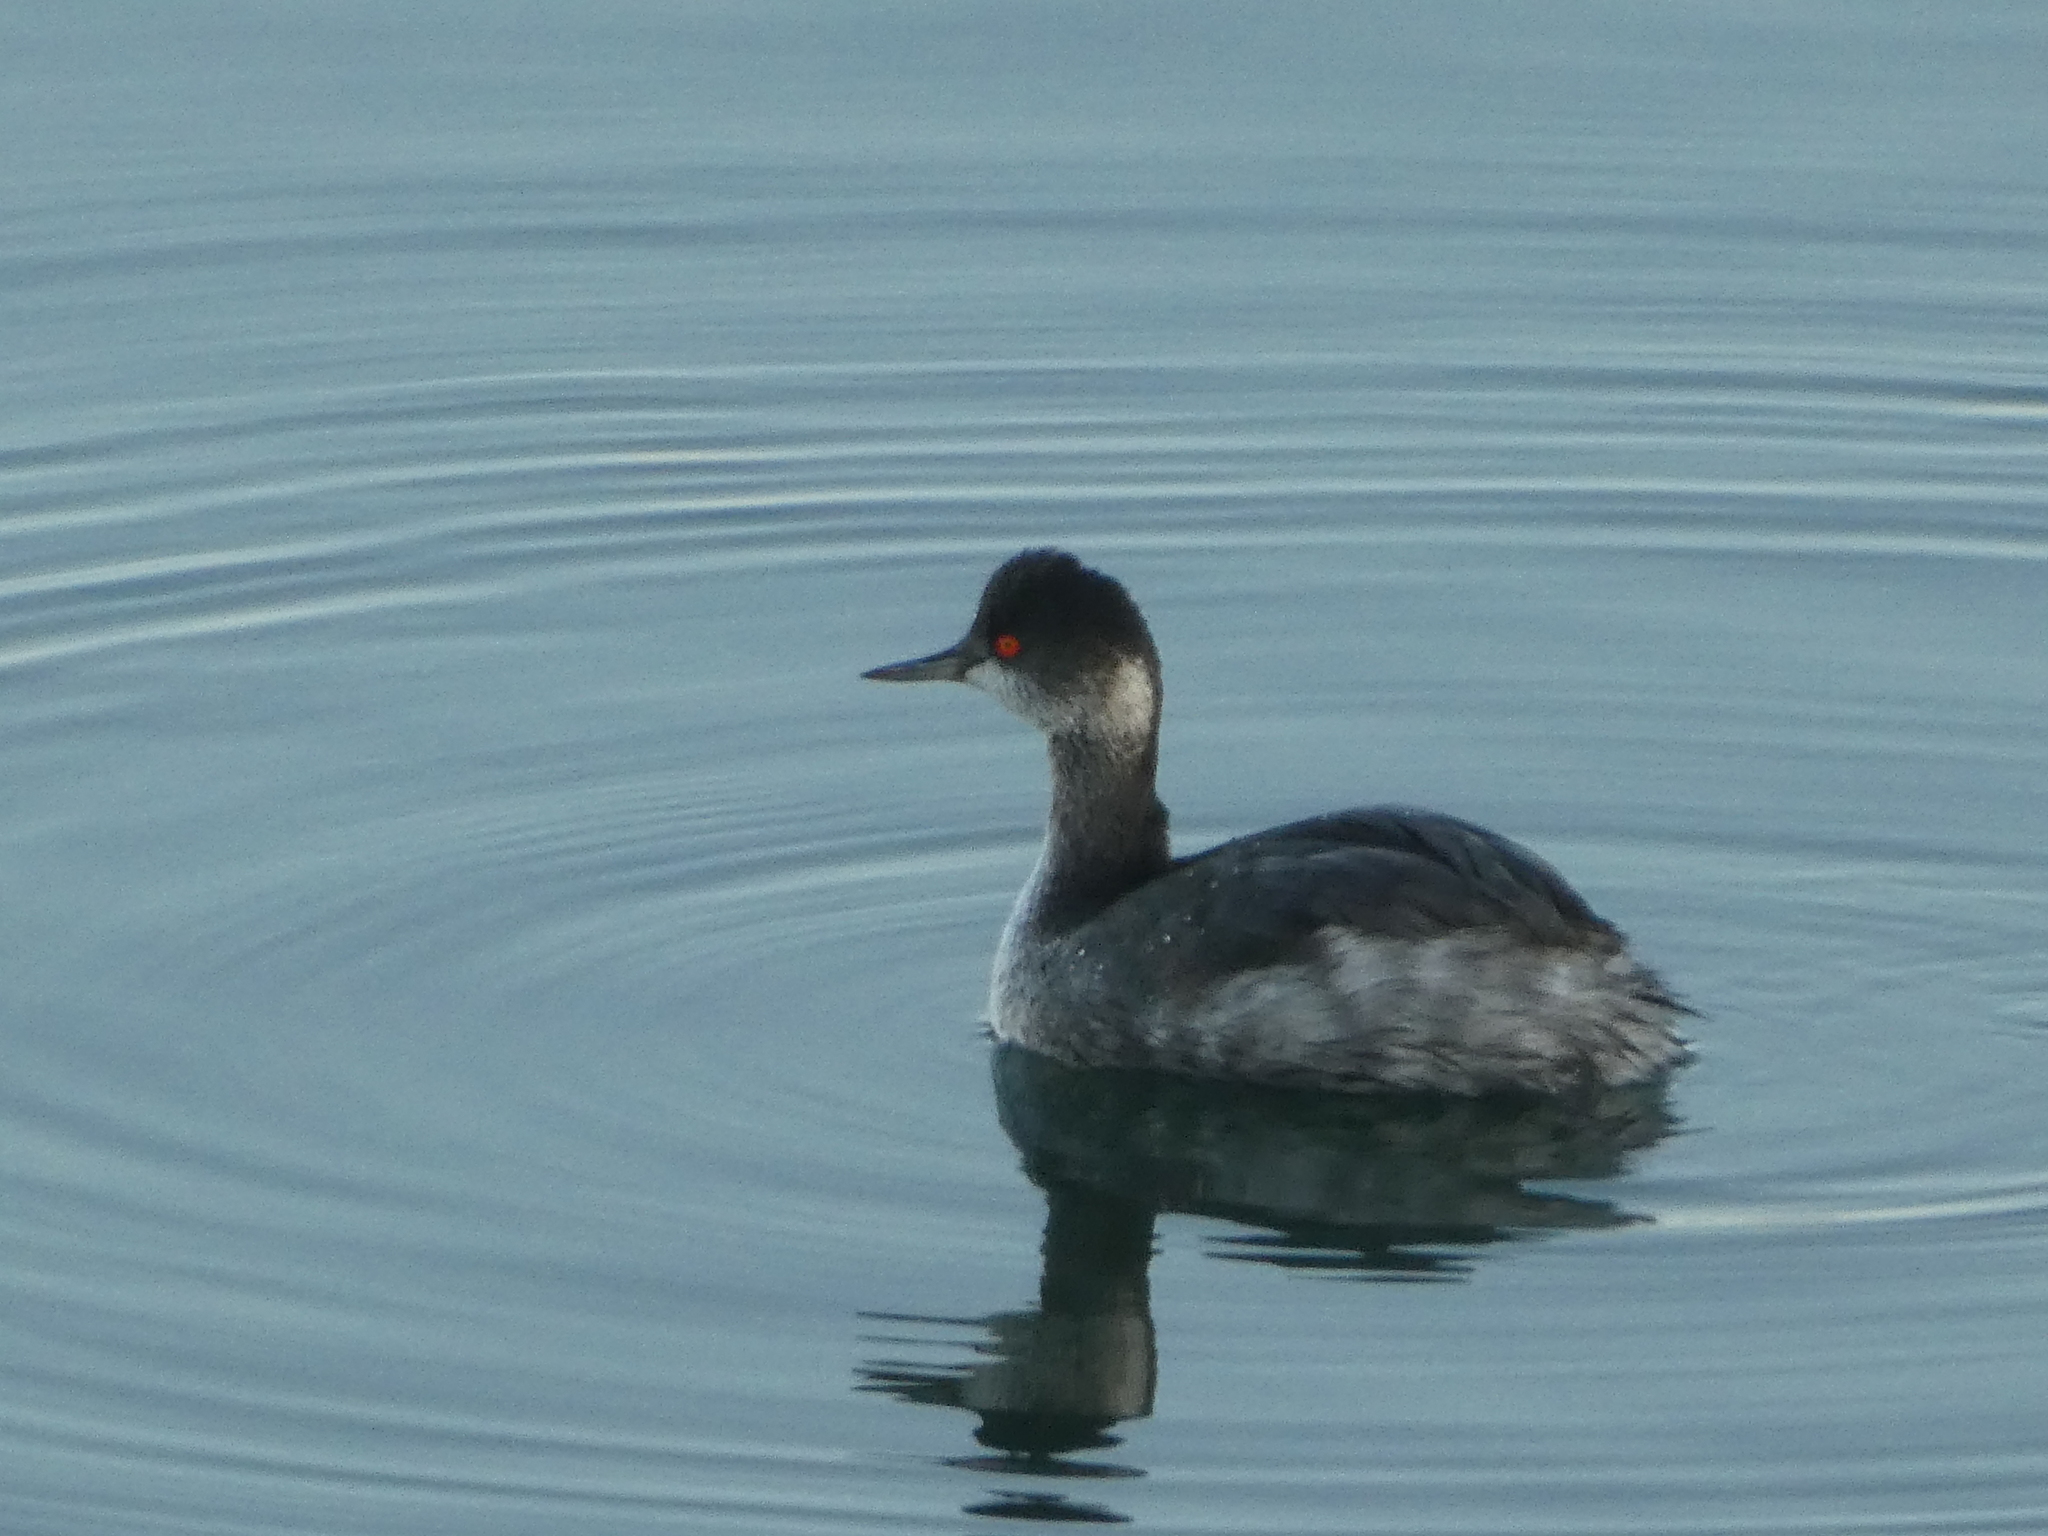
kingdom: Animalia
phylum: Chordata
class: Aves
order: Podicipediformes
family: Podicipedidae
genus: Podiceps
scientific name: Podiceps nigricollis
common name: Black-necked grebe
